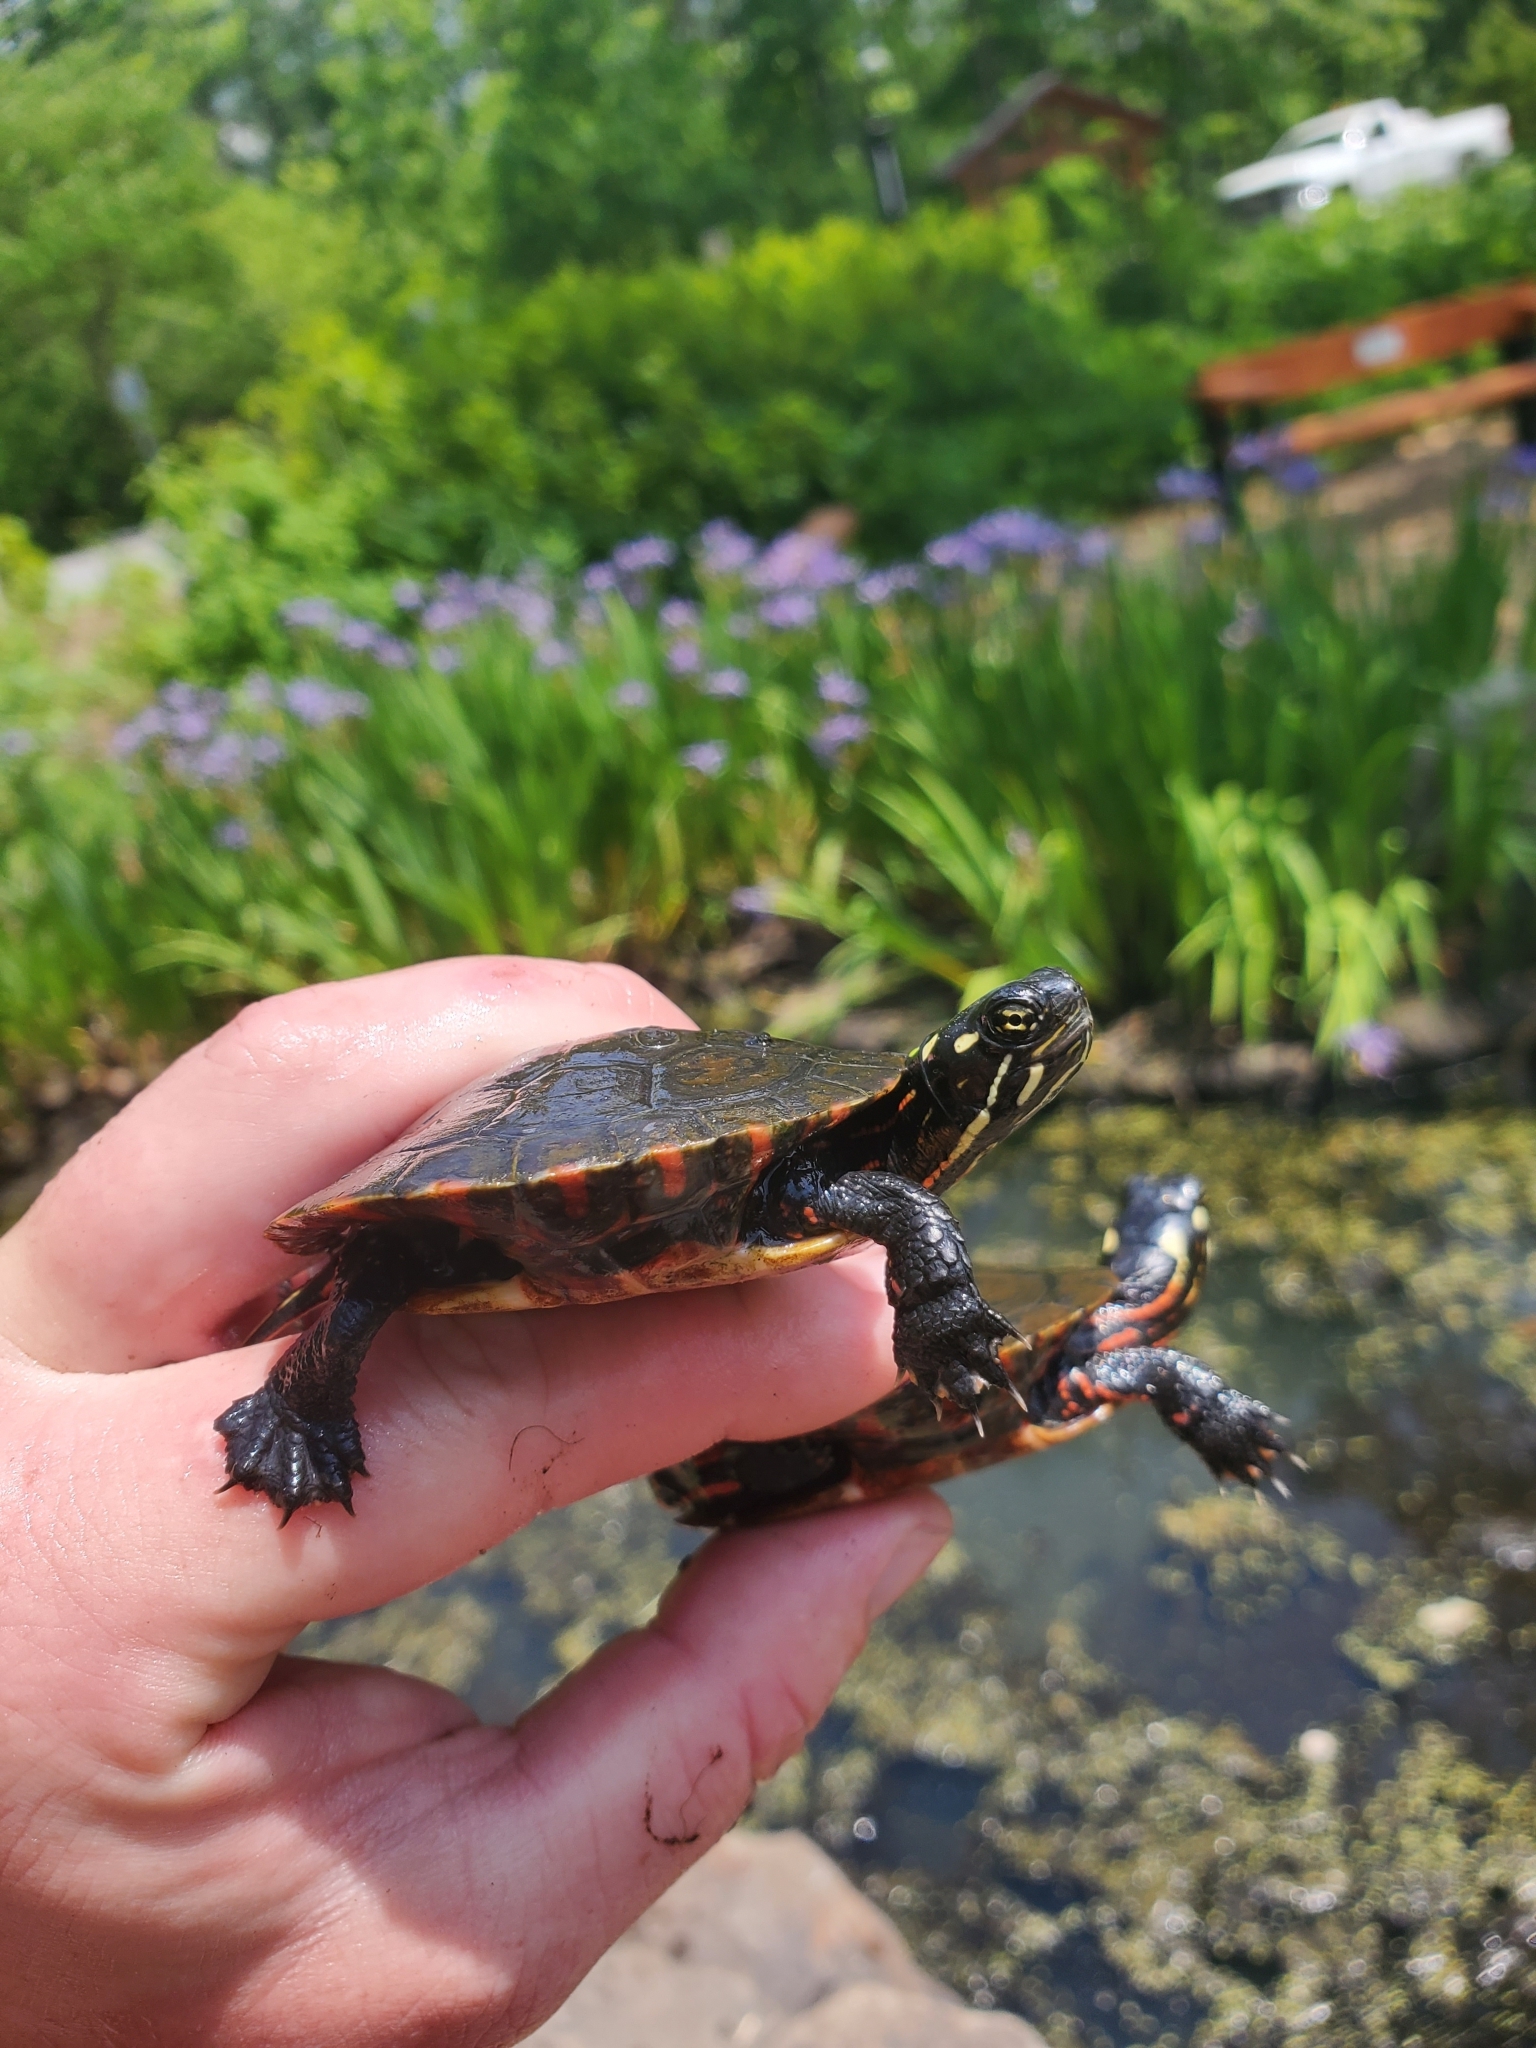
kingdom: Animalia
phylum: Chordata
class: Testudines
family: Emydidae
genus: Chrysemys
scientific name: Chrysemys picta
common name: Painted turtle
